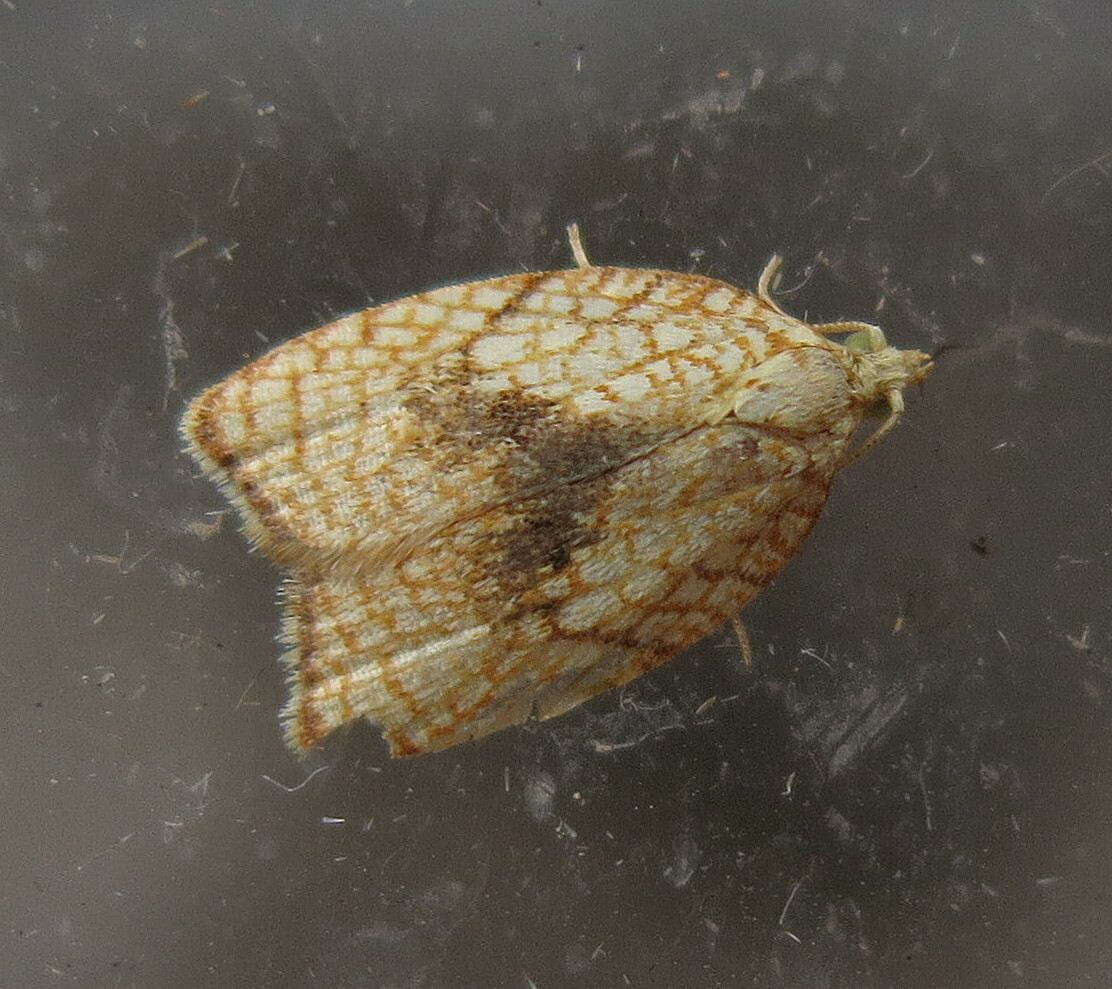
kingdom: Animalia
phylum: Arthropoda
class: Insecta
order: Lepidoptera
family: Tortricidae
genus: Acleris
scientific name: Acleris forsskaleana
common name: Maple button
